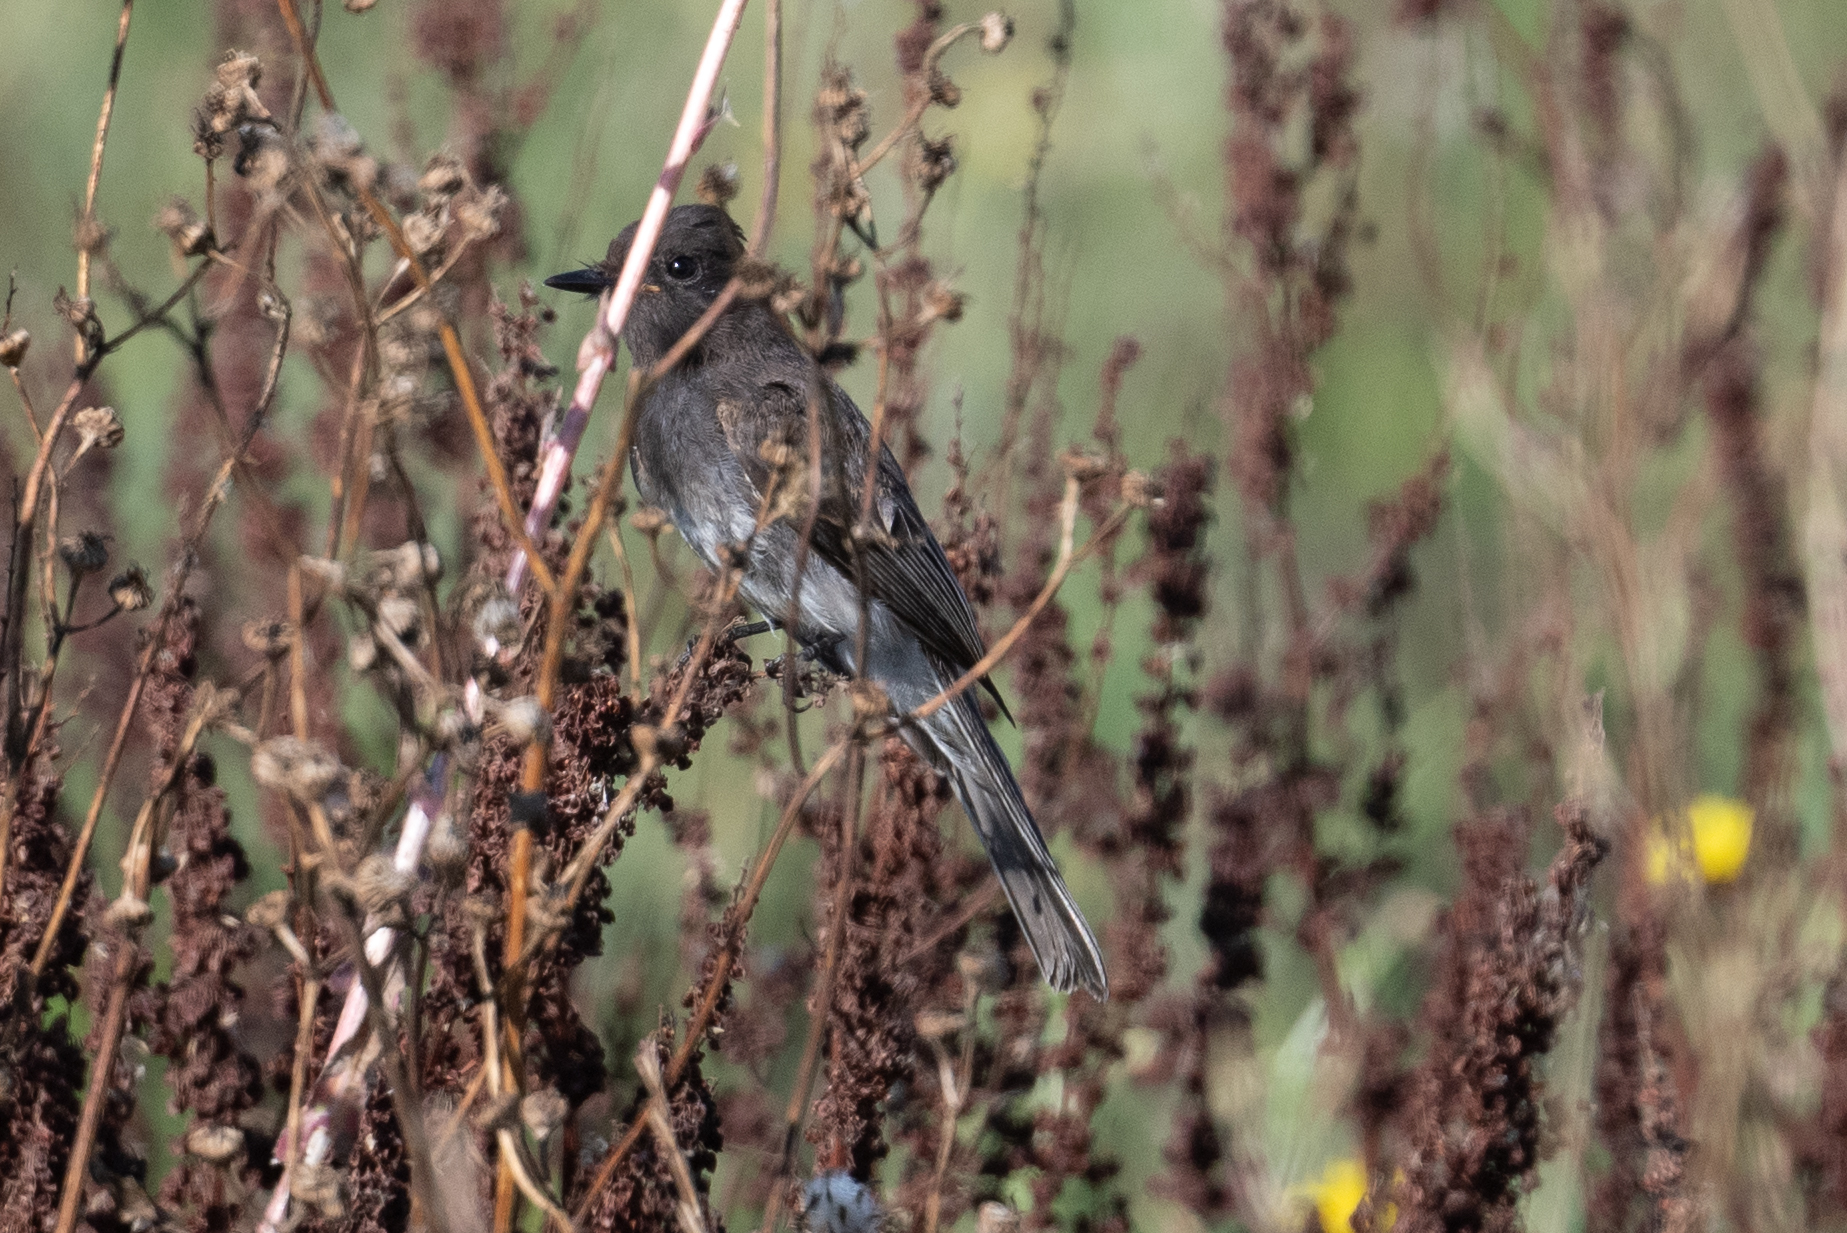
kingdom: Animalia
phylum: Chordata
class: Aves
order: Passeriformes
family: Tyrannidae
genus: Sayornis
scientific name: Sayornis nigricans
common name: Black phoebe
